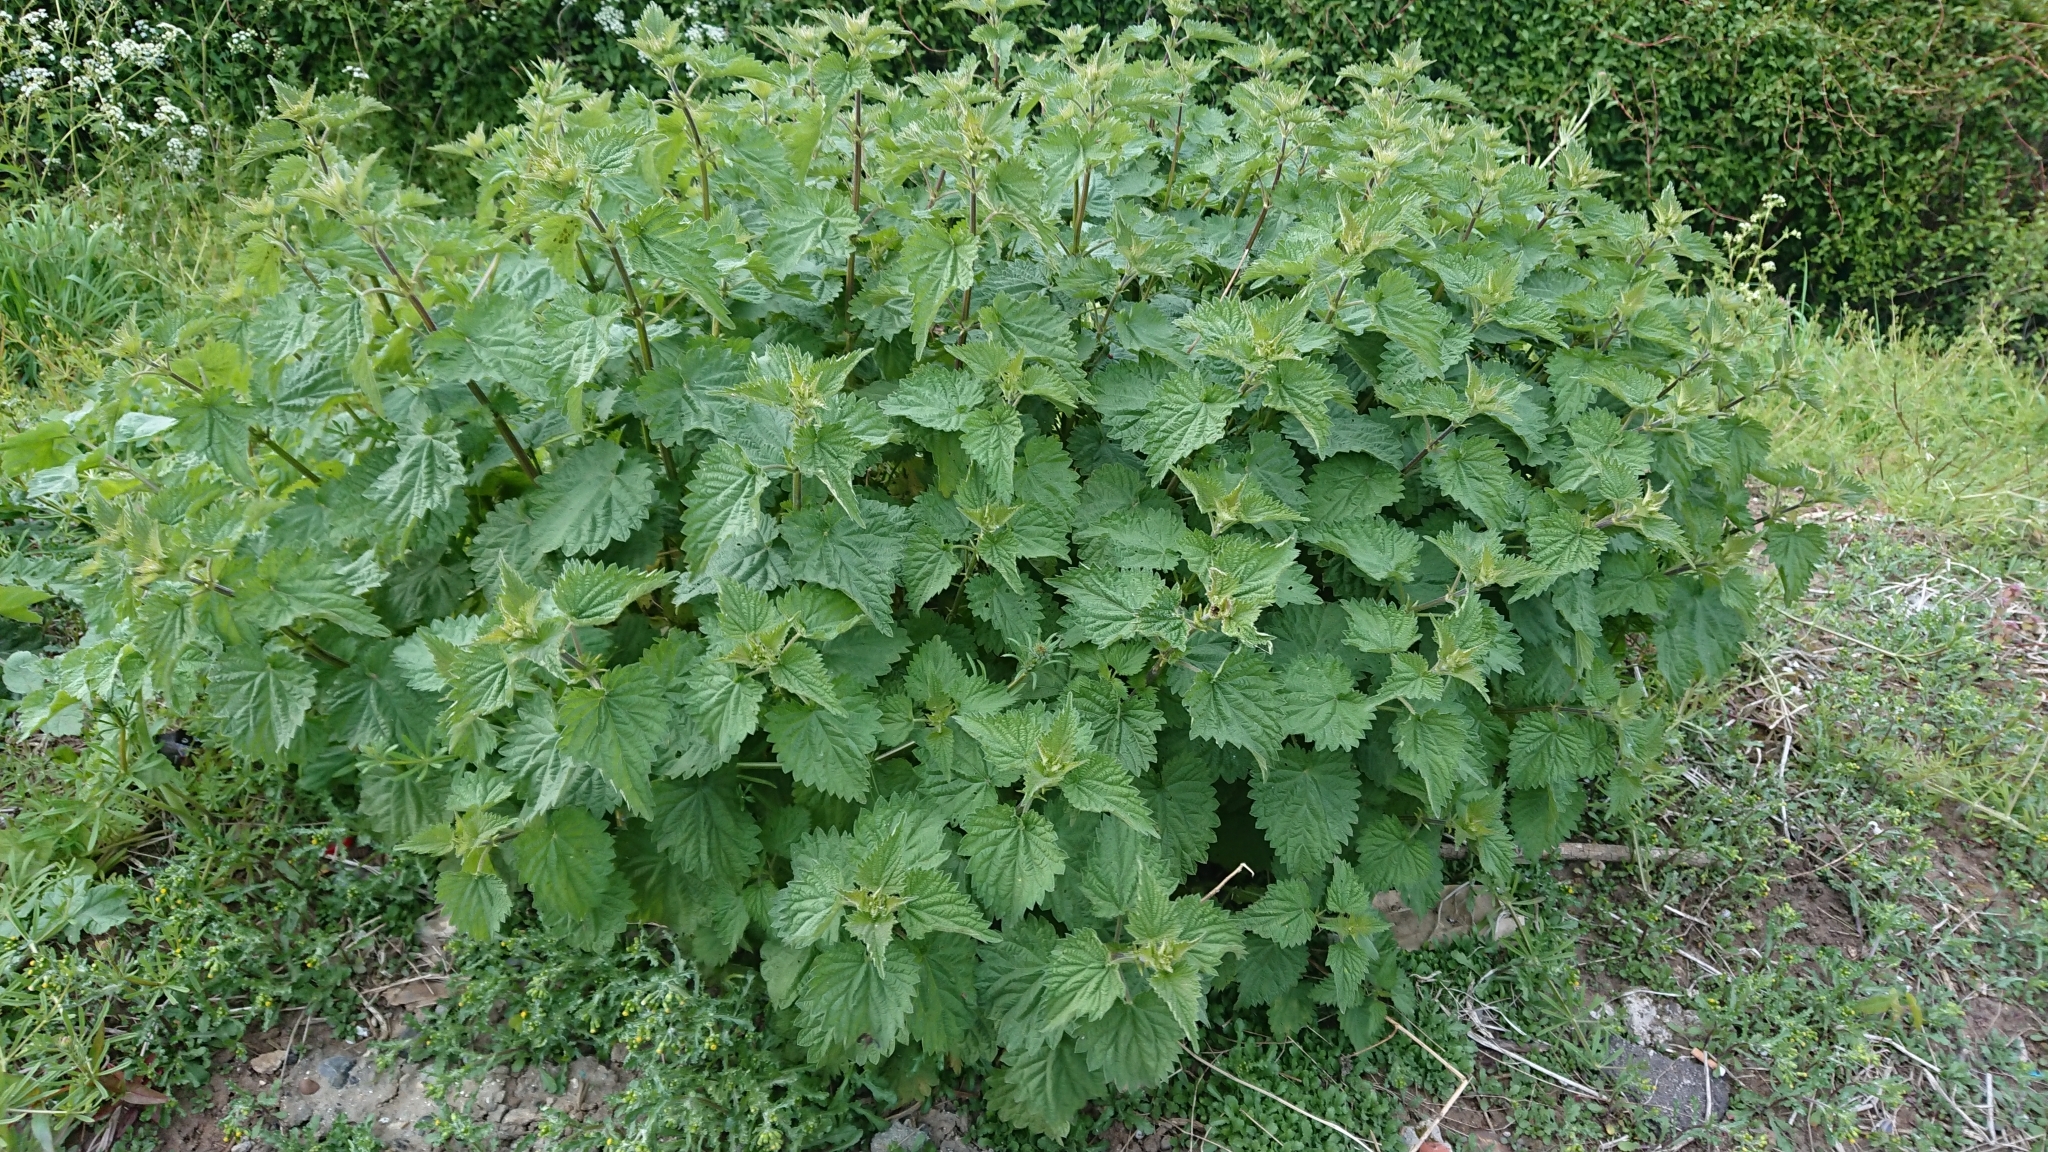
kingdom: Plantae
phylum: Tracheophyta
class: Magnoliopsida
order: Rosales
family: Urticaceae
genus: Urtica
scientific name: Urtica dioica
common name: Common nettle
